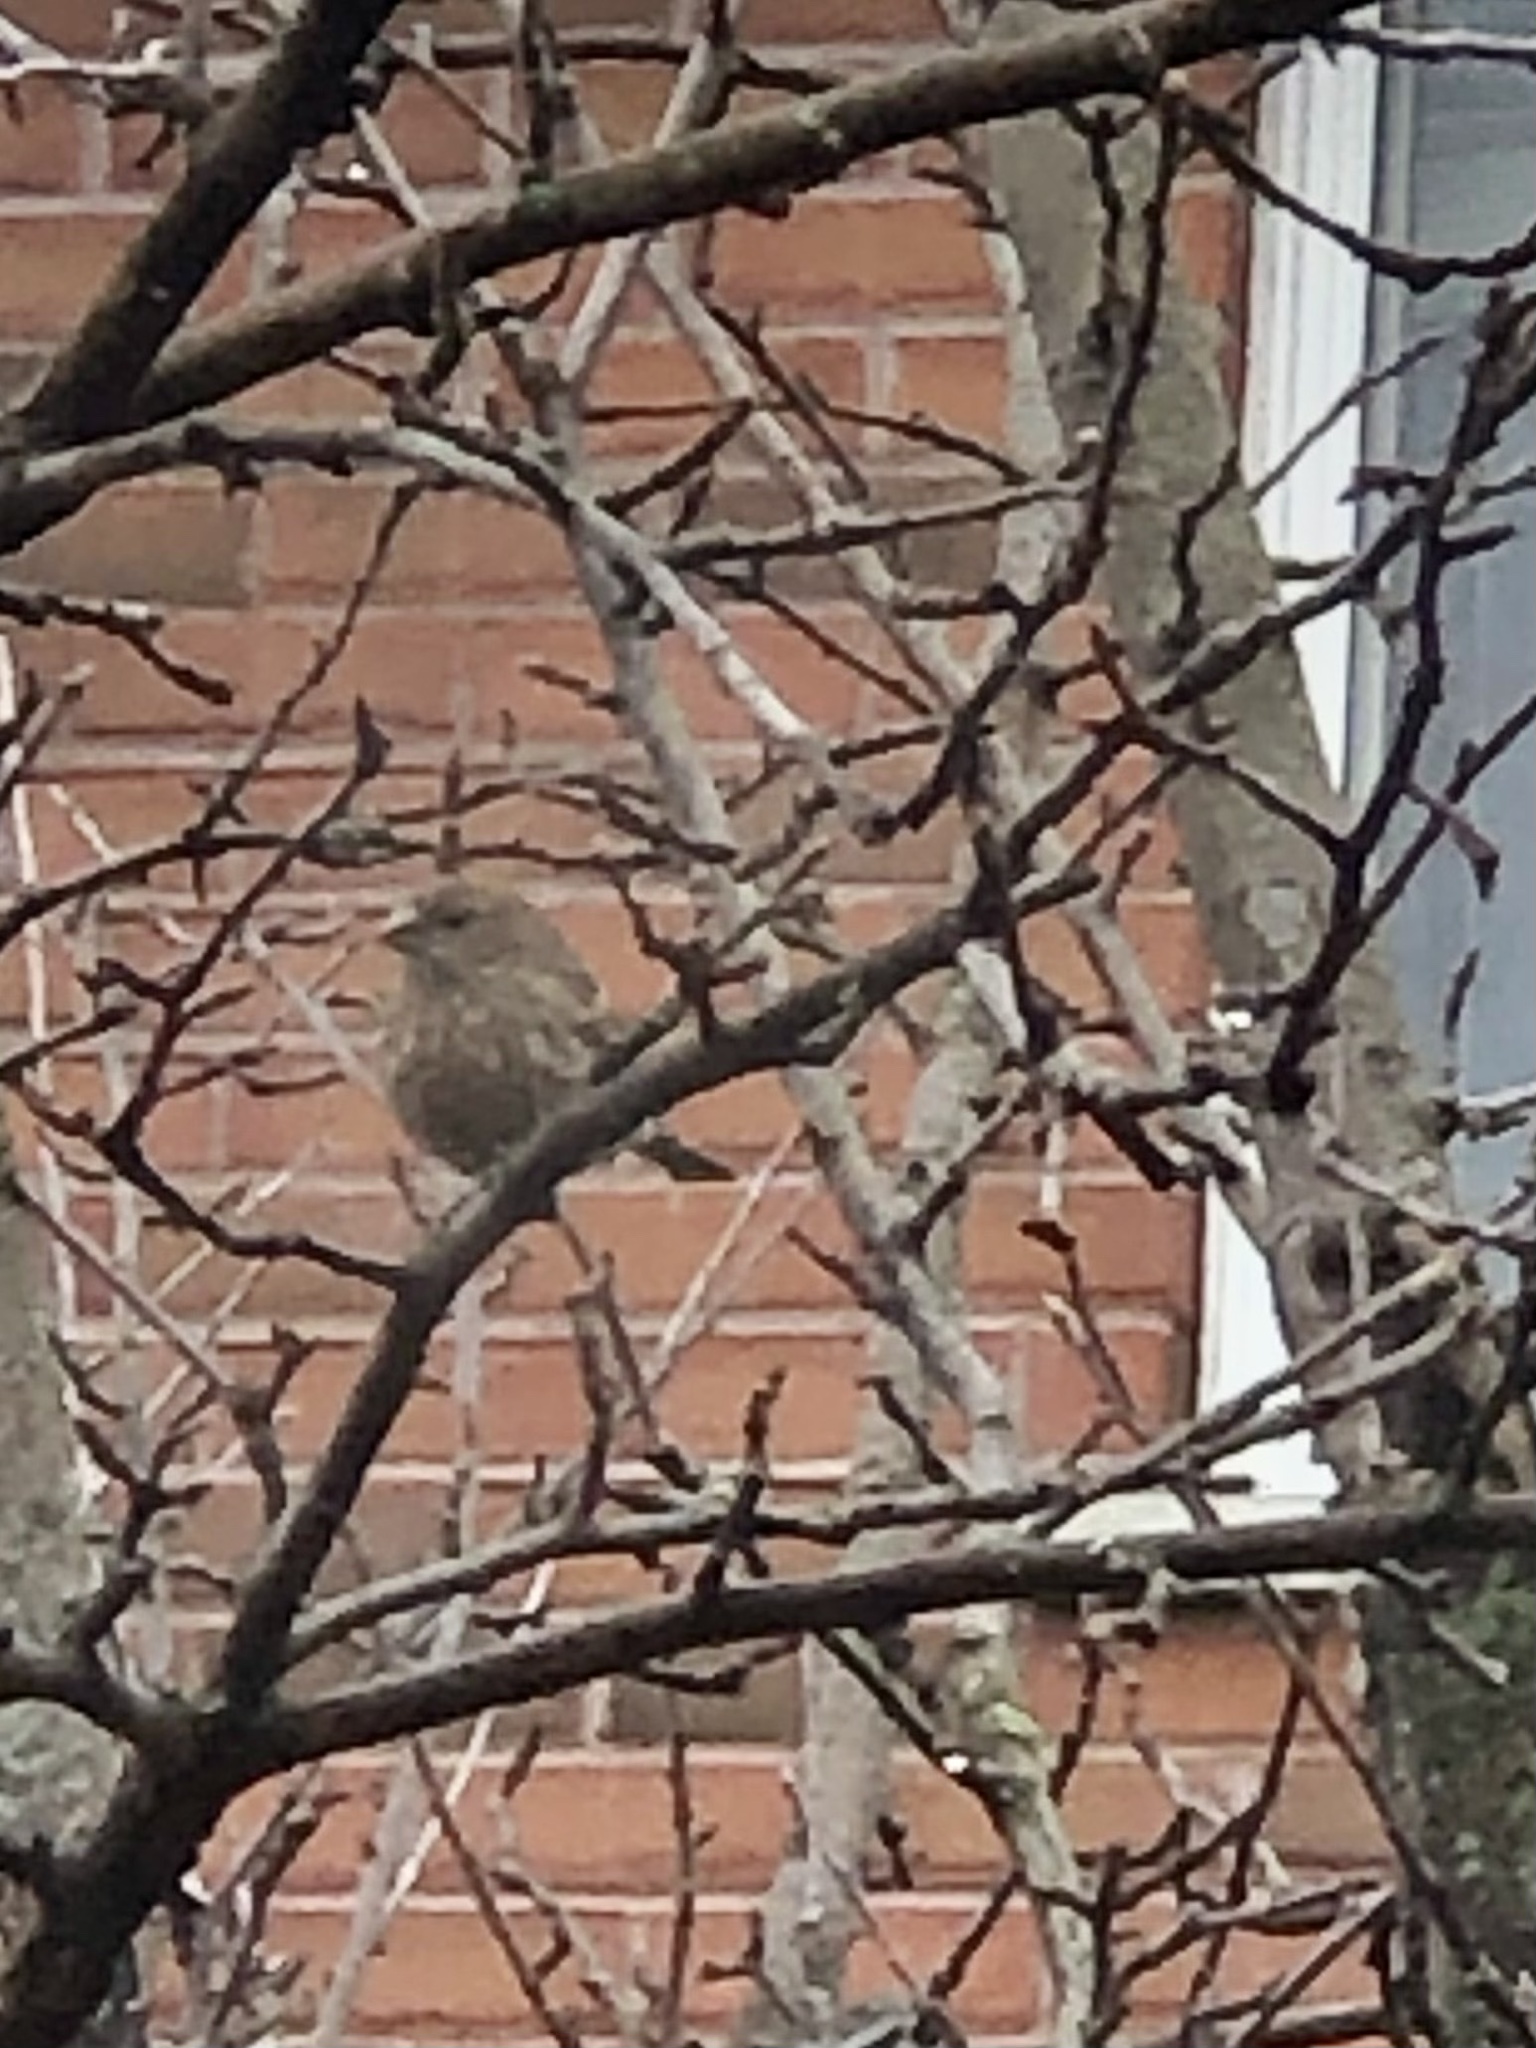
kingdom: Animalia
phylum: Chordata
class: Aves
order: Passeriformes
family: Passeridae
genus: Passer
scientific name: Passer domesticus
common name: House sparrow
